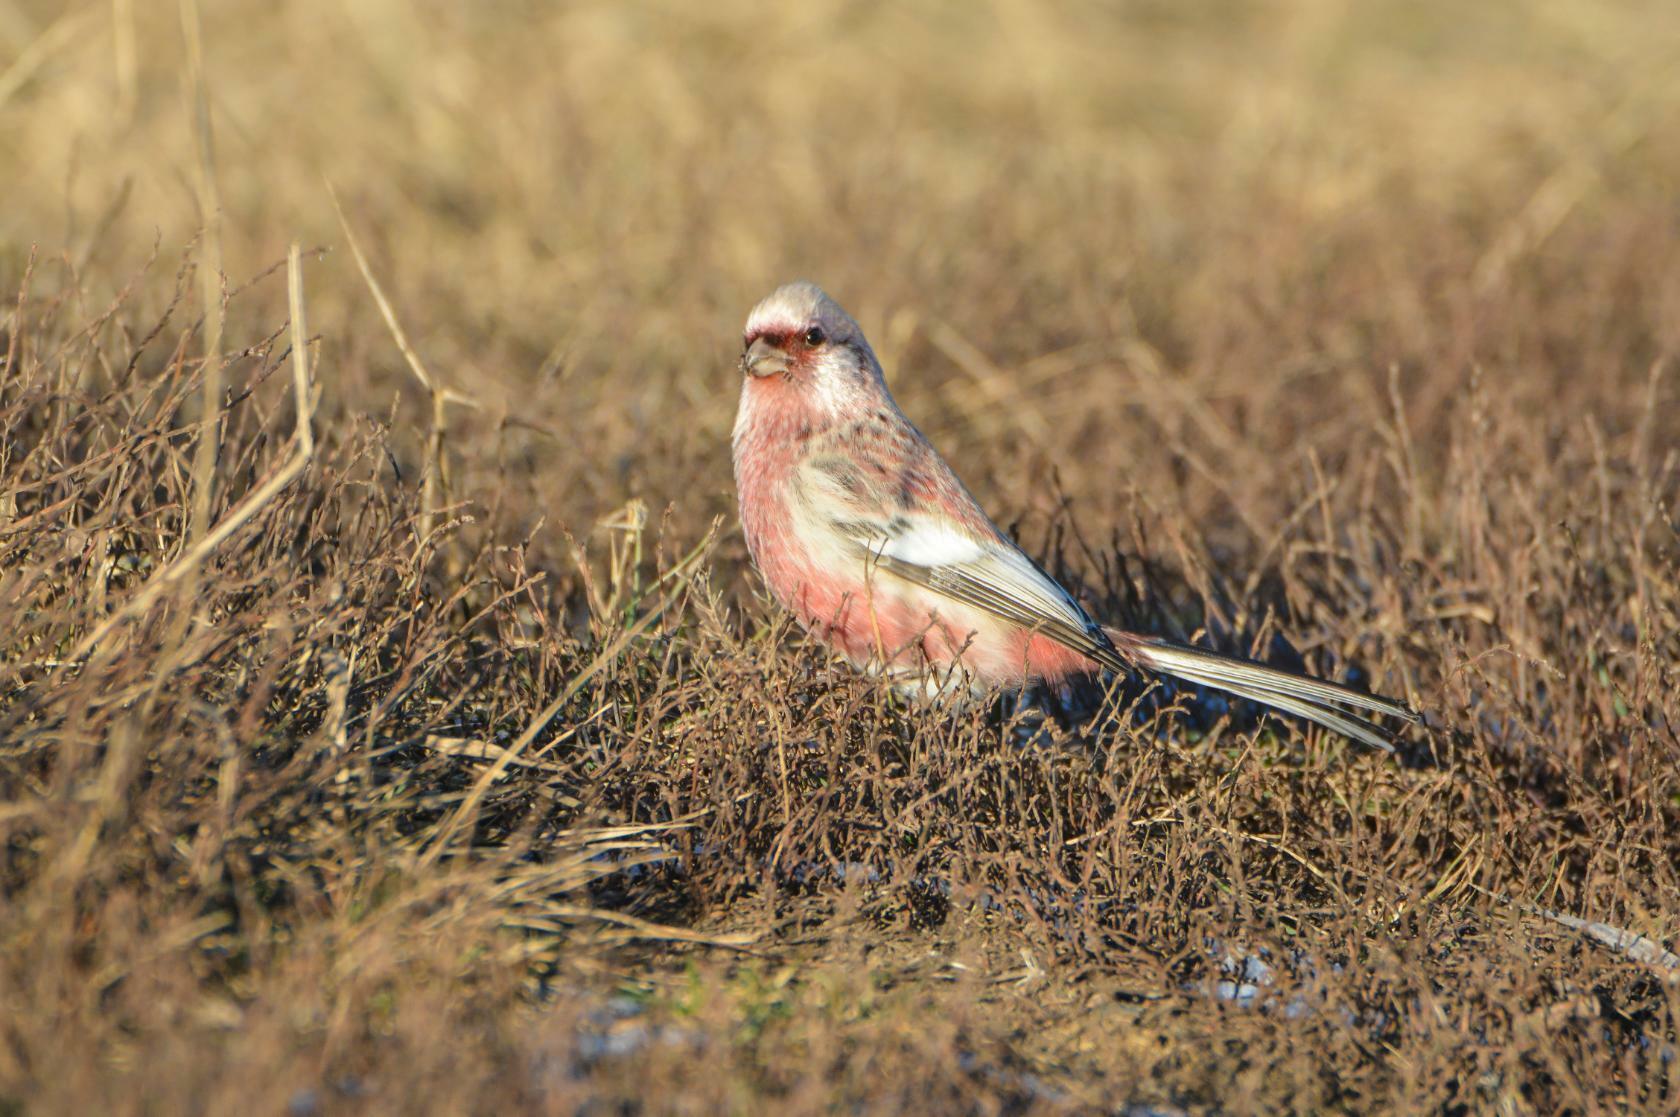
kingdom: Animalia
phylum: Chordata
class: Aves
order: Passeriformes
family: Fringillidae
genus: Carpodacus
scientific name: Carpodacus sibiricus
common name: Long-tailed rosefinch
